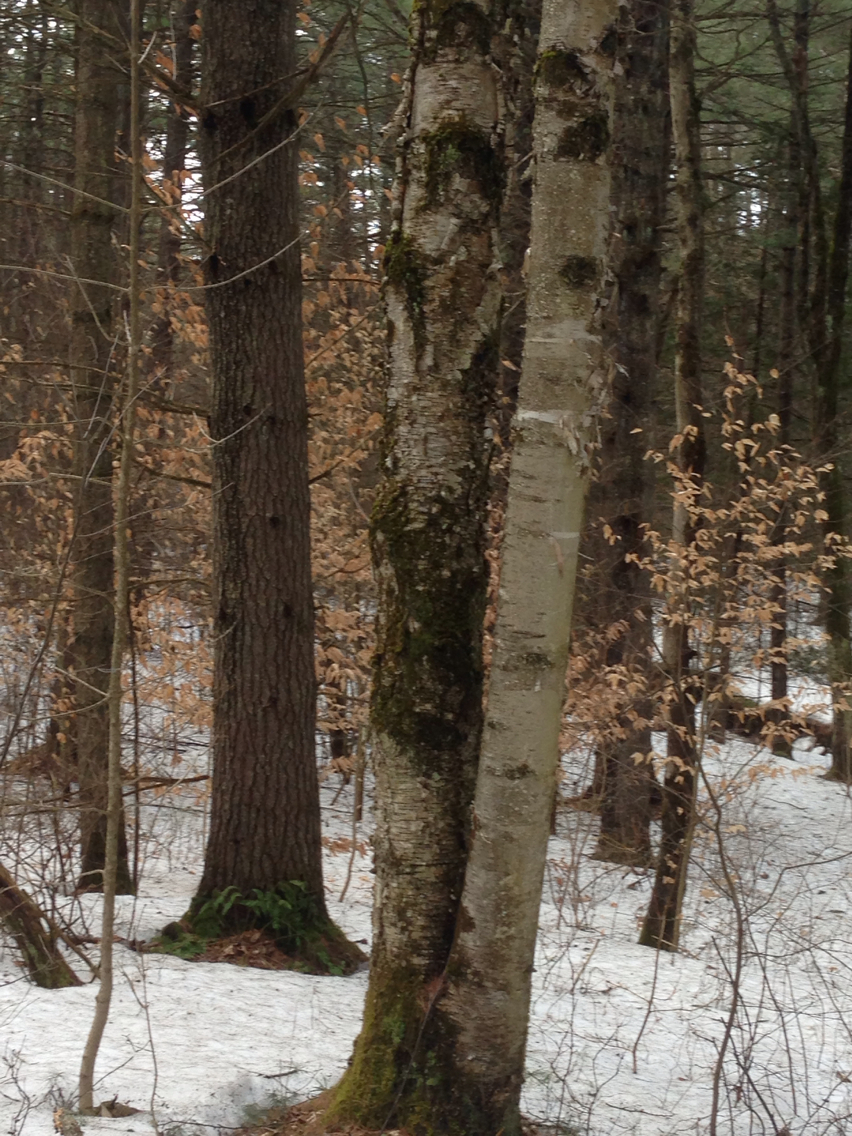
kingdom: Plantae
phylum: Tracheophyta
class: Magnoliopsida
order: Fagales
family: Betulaceae
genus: Betula
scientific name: Betula papyrifera
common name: Paper birch
